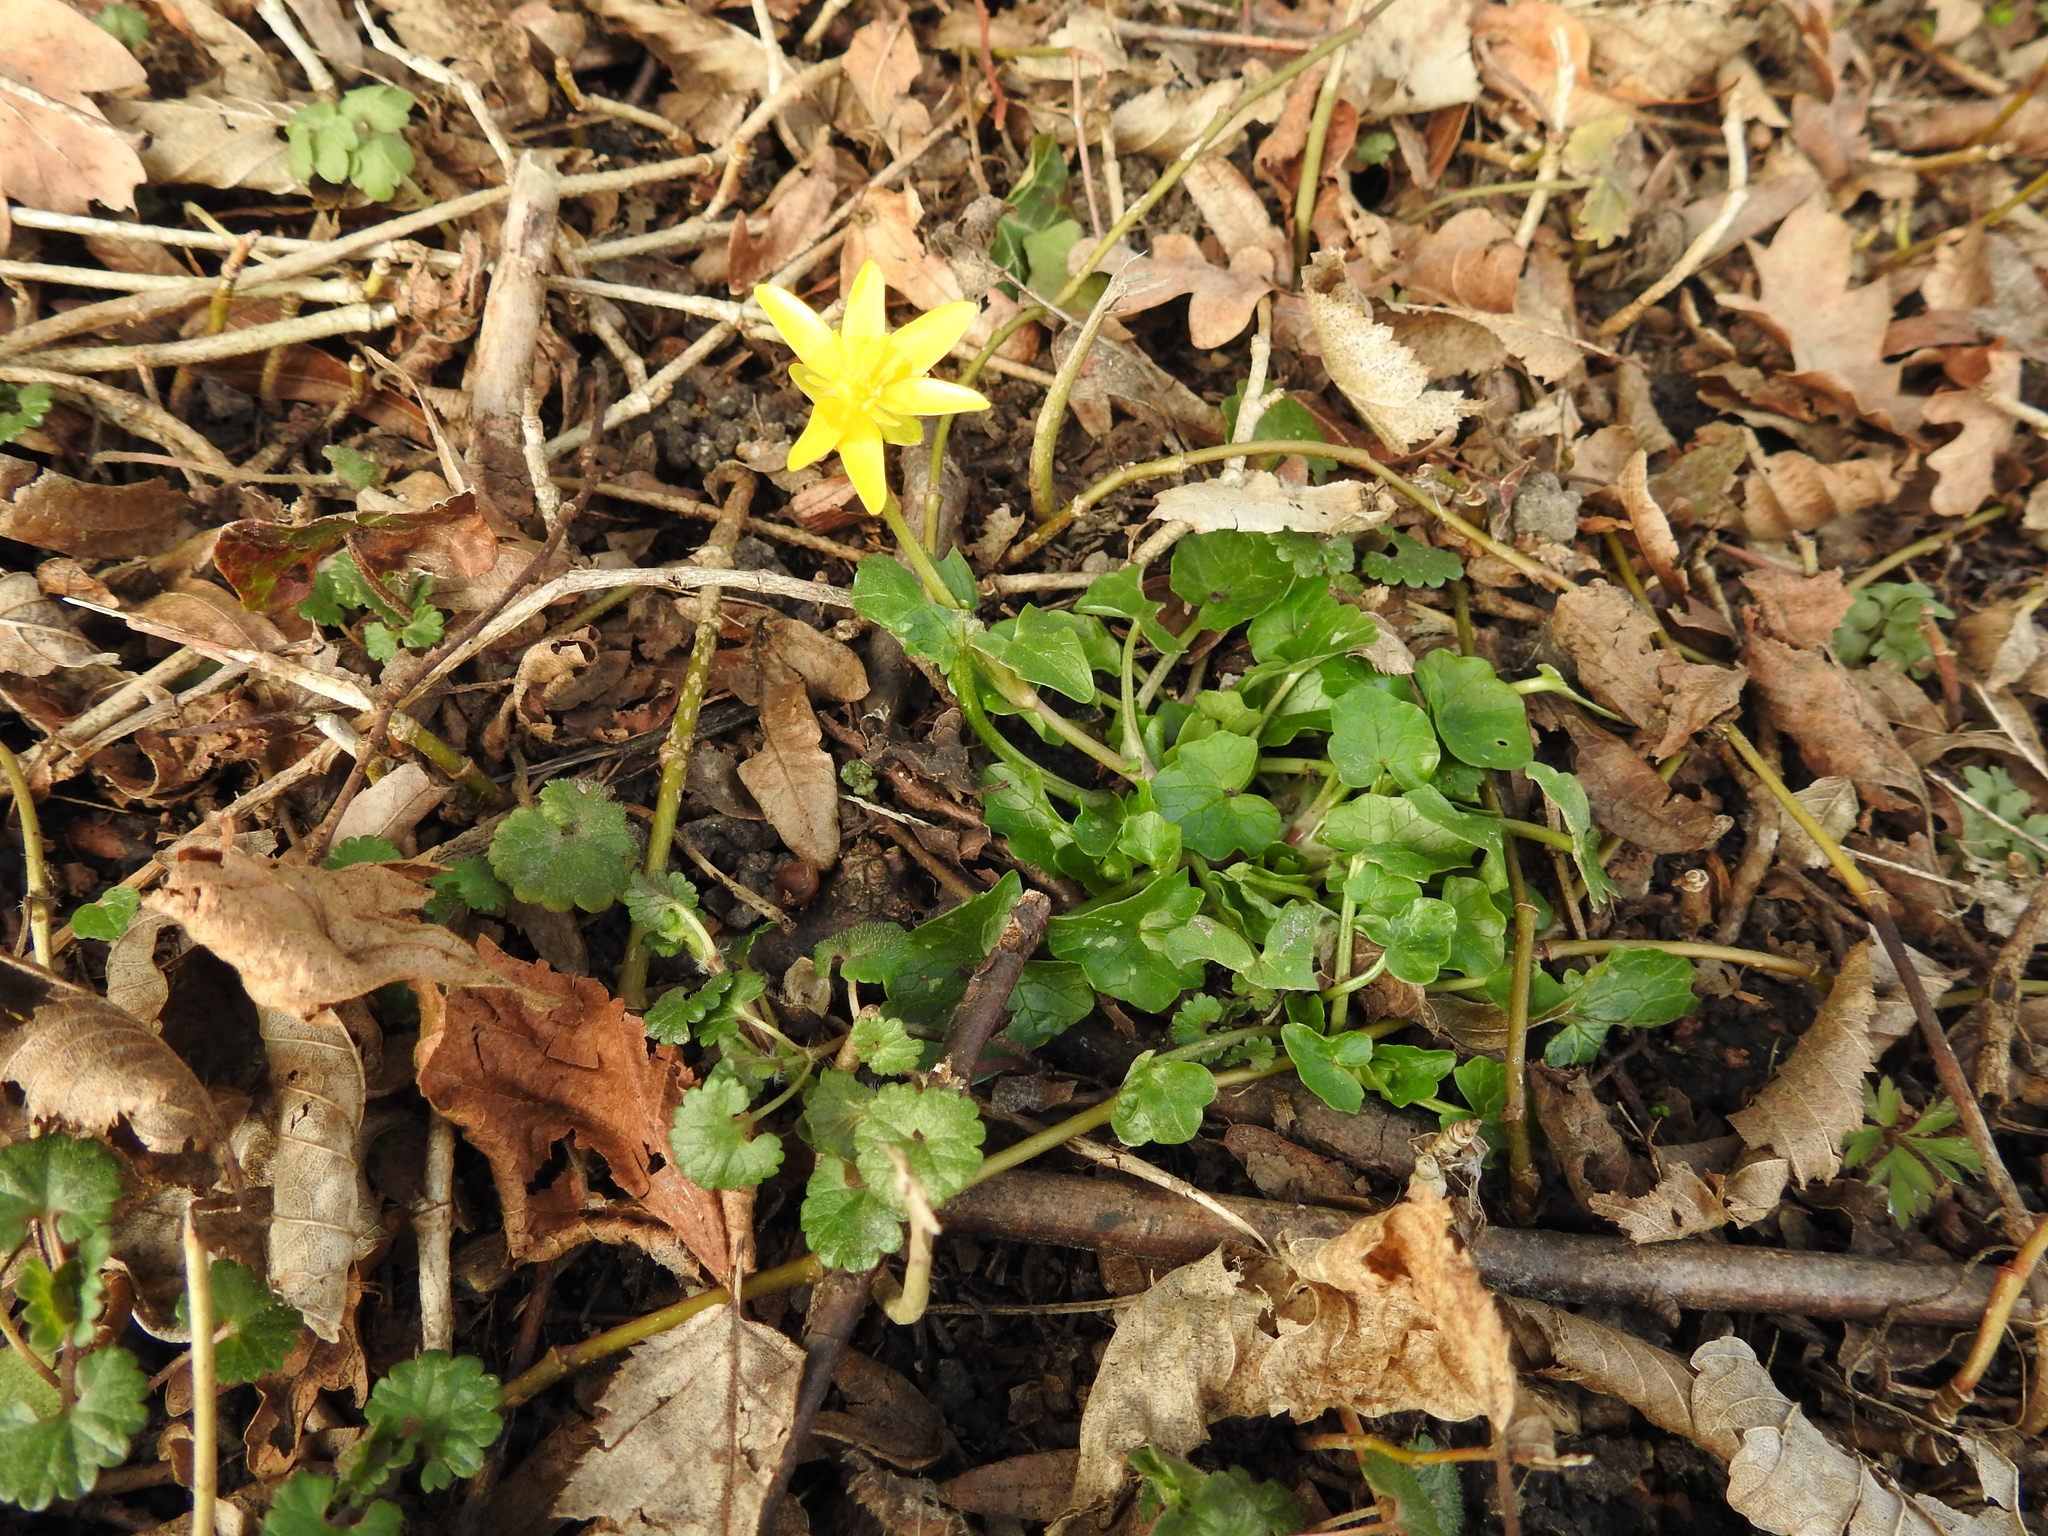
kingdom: Plantae
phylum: Tracheophyta
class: Magnoliopsida
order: Ranunculales
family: Ranunculaceae
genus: Ficaria
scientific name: Ficaria verna
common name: Lesser celandine
